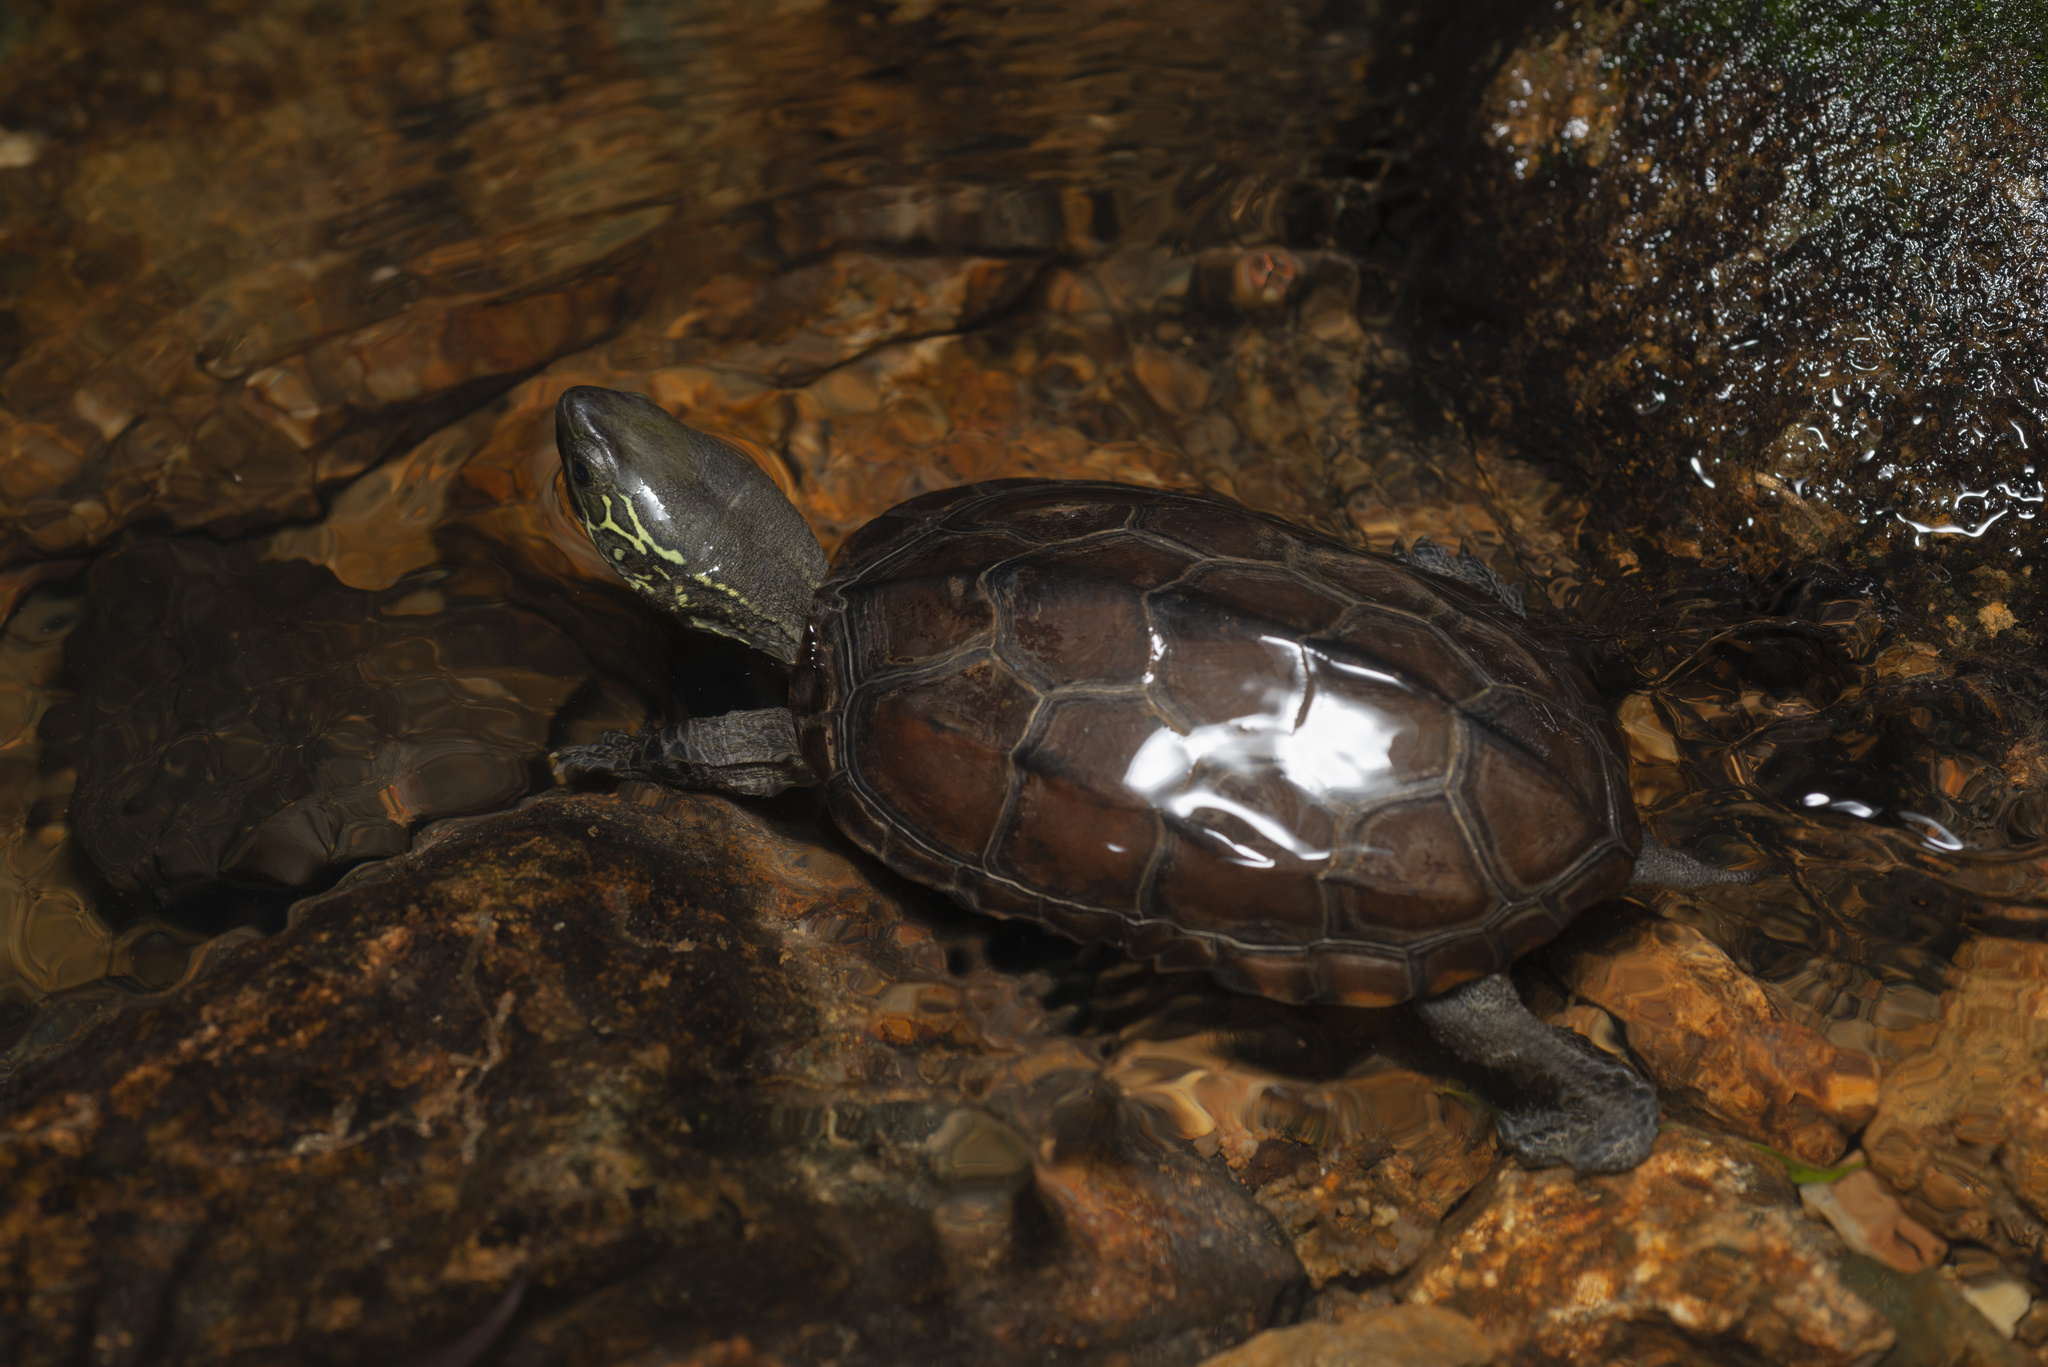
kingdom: Animalia
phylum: Chordata
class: Testudines
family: Geoemydidae
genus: Mauremys
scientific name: Mauremys reevesii
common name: Chinese pond turtle
